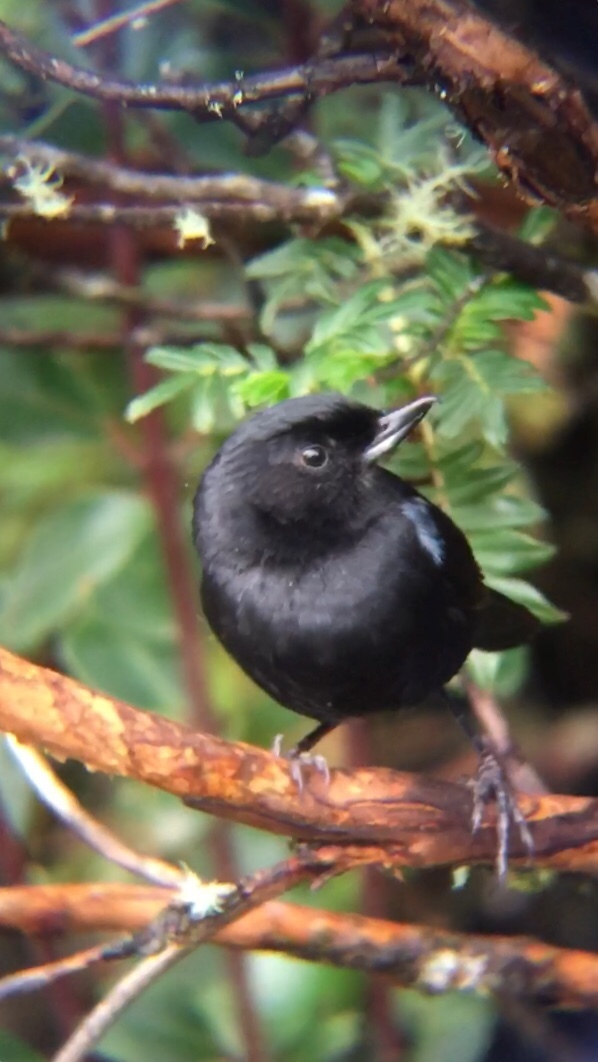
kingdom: Animalia
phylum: Chordata
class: Aves
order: Passeriformes
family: Thraupidae
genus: Diglossa
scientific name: Diglossa lafresnayii
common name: Glossy flowerpiercer
